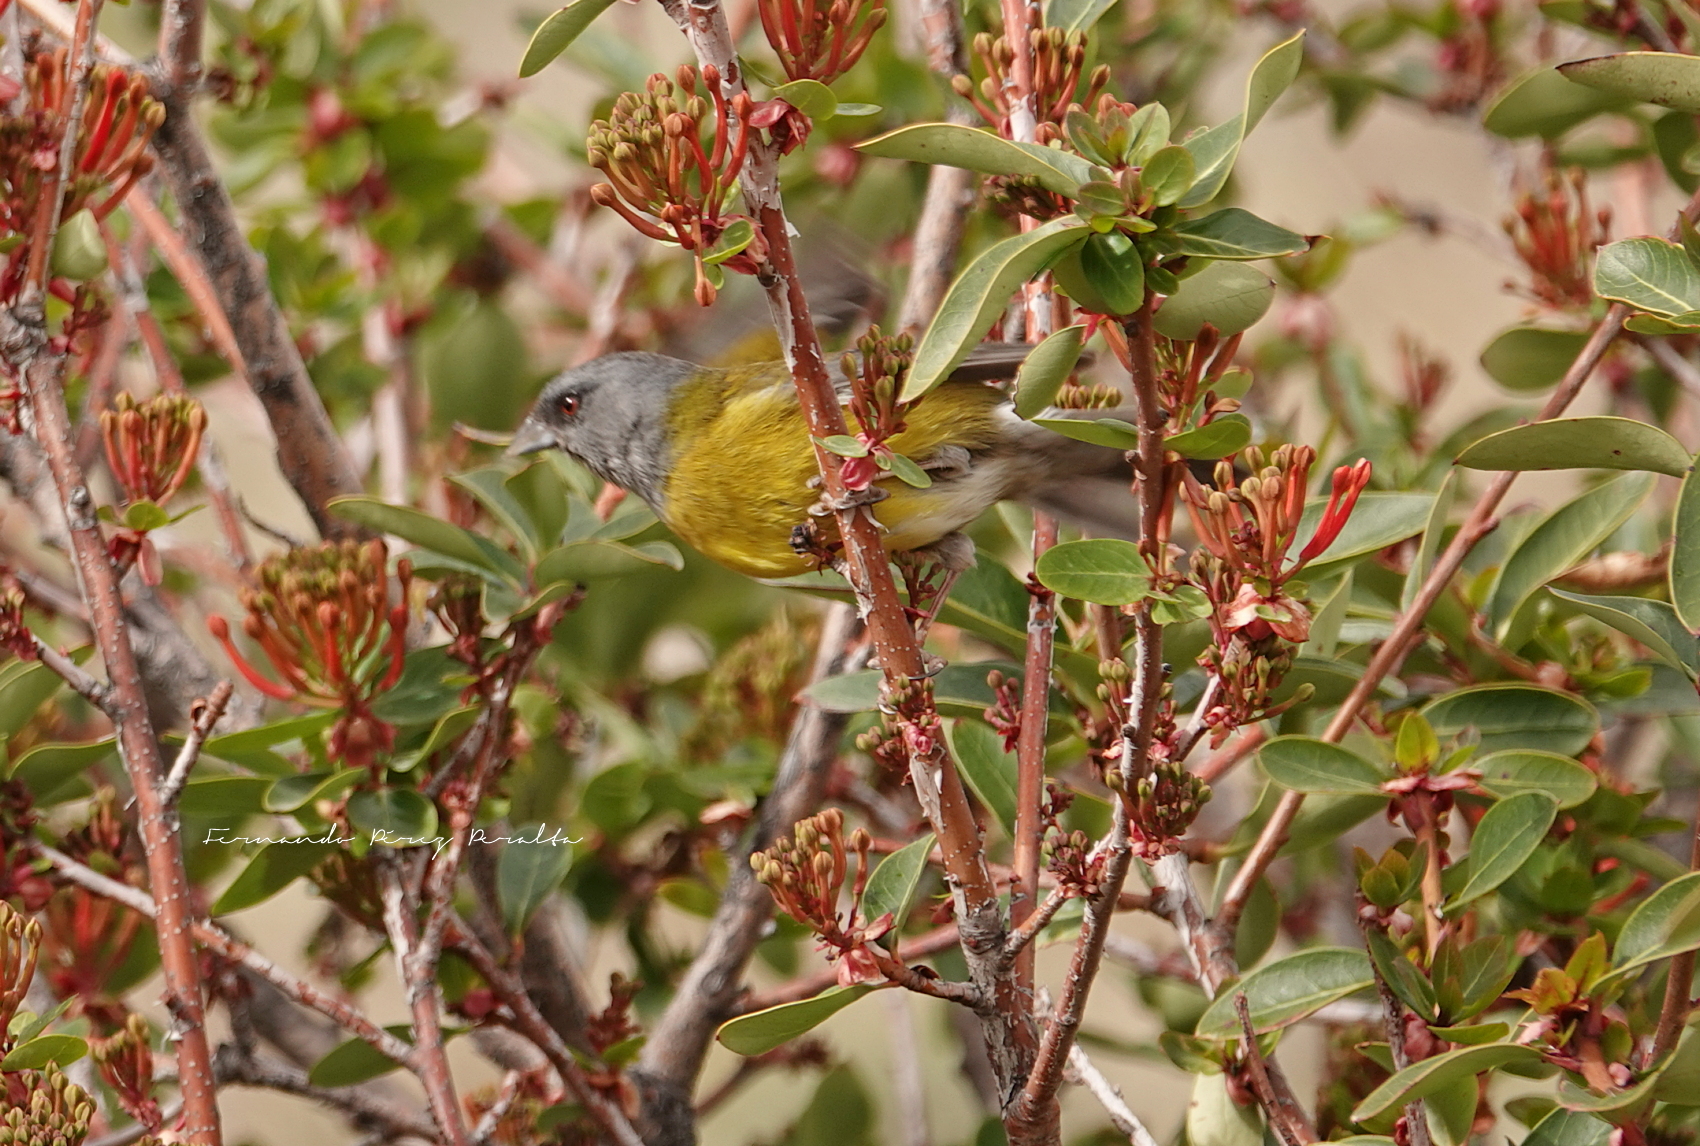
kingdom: Animalia
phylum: Chordata
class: Aves
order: Passeriformes
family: Thraupidae
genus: Phrygilus
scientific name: Phrygilus patagonicus
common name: Patagonian sierra finch
